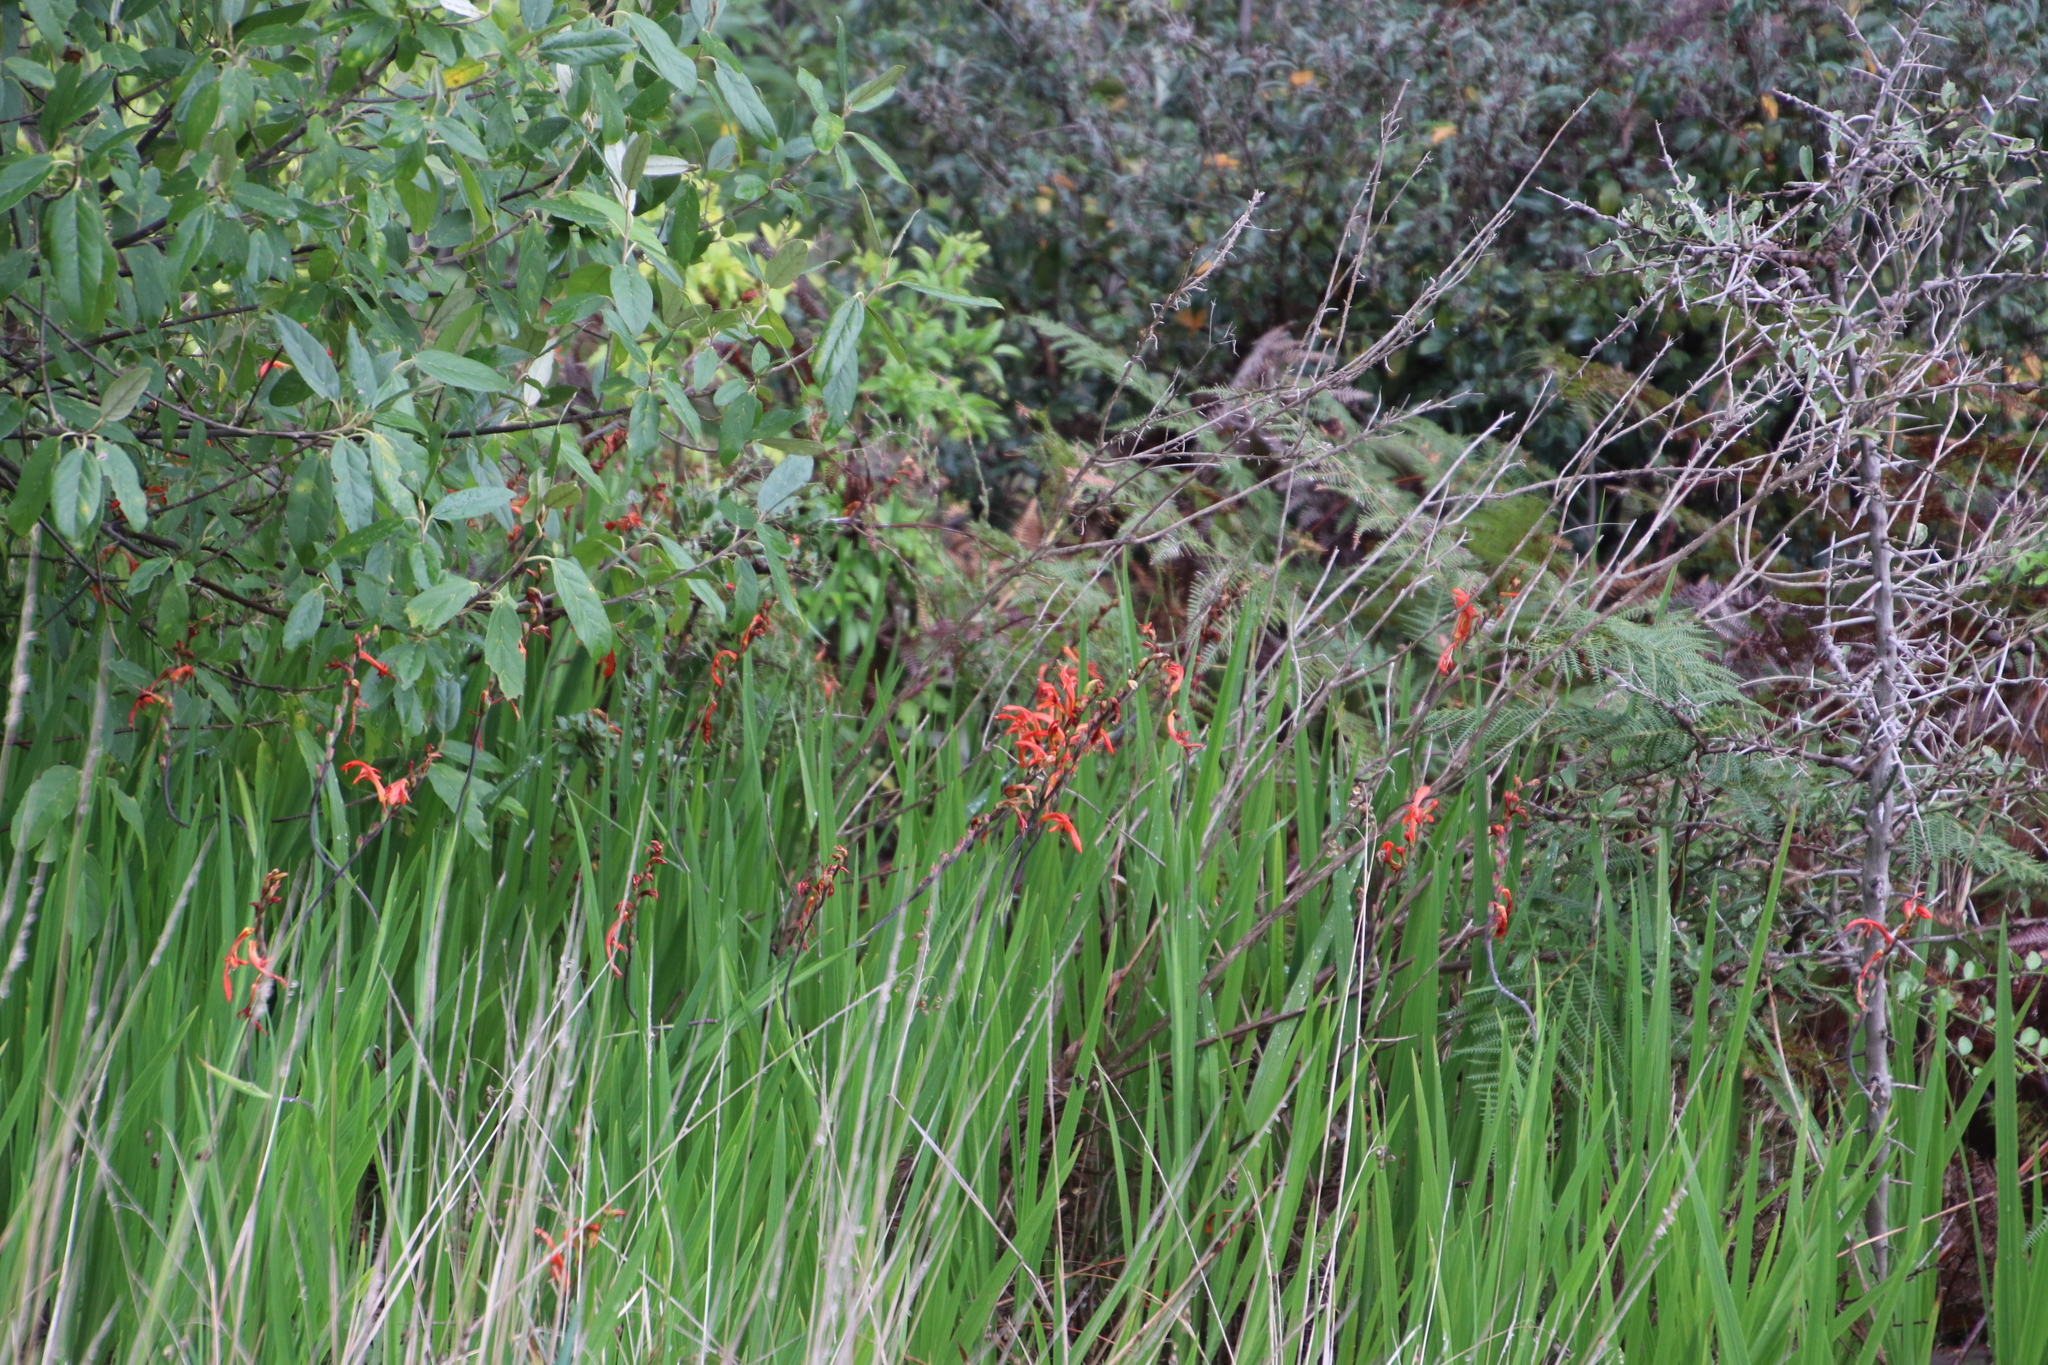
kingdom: Plantae
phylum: Tracheophyta
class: Liliopsida
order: Asparagales
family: Iridaceae
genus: Chasmanthe
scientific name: Chasmanthe aethiopica
